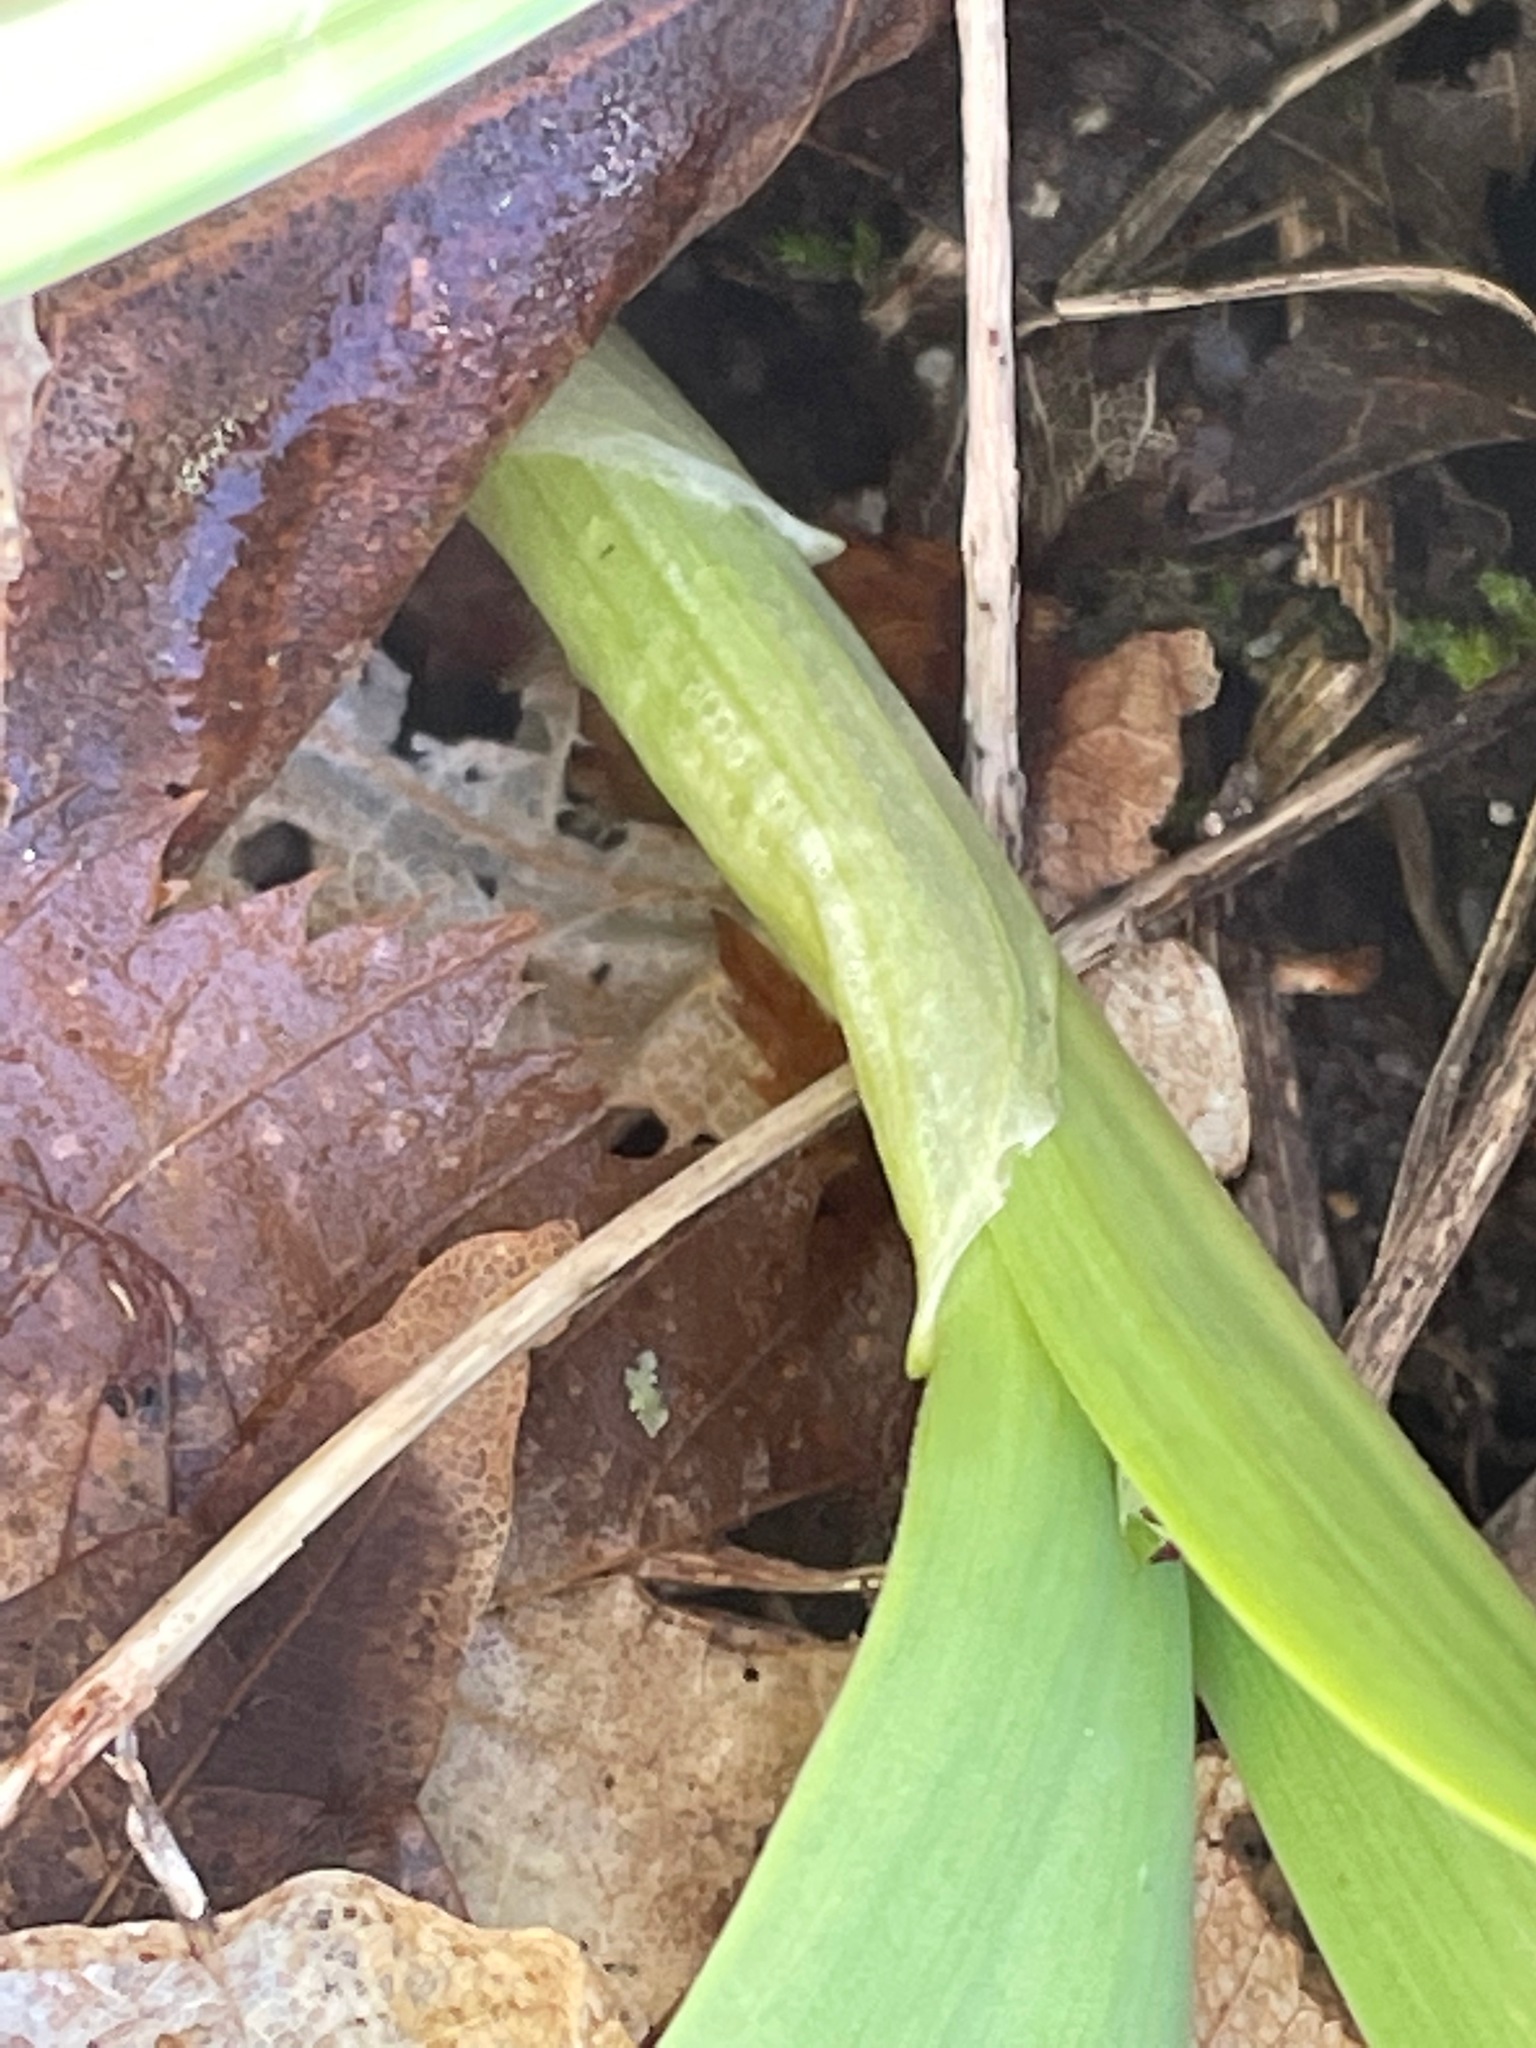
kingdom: Plantae
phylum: Tracheophyta
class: Liliopsida
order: Asparagales
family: Amaryllidaceae
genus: Allium
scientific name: Allium tricoccum
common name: Ramp
